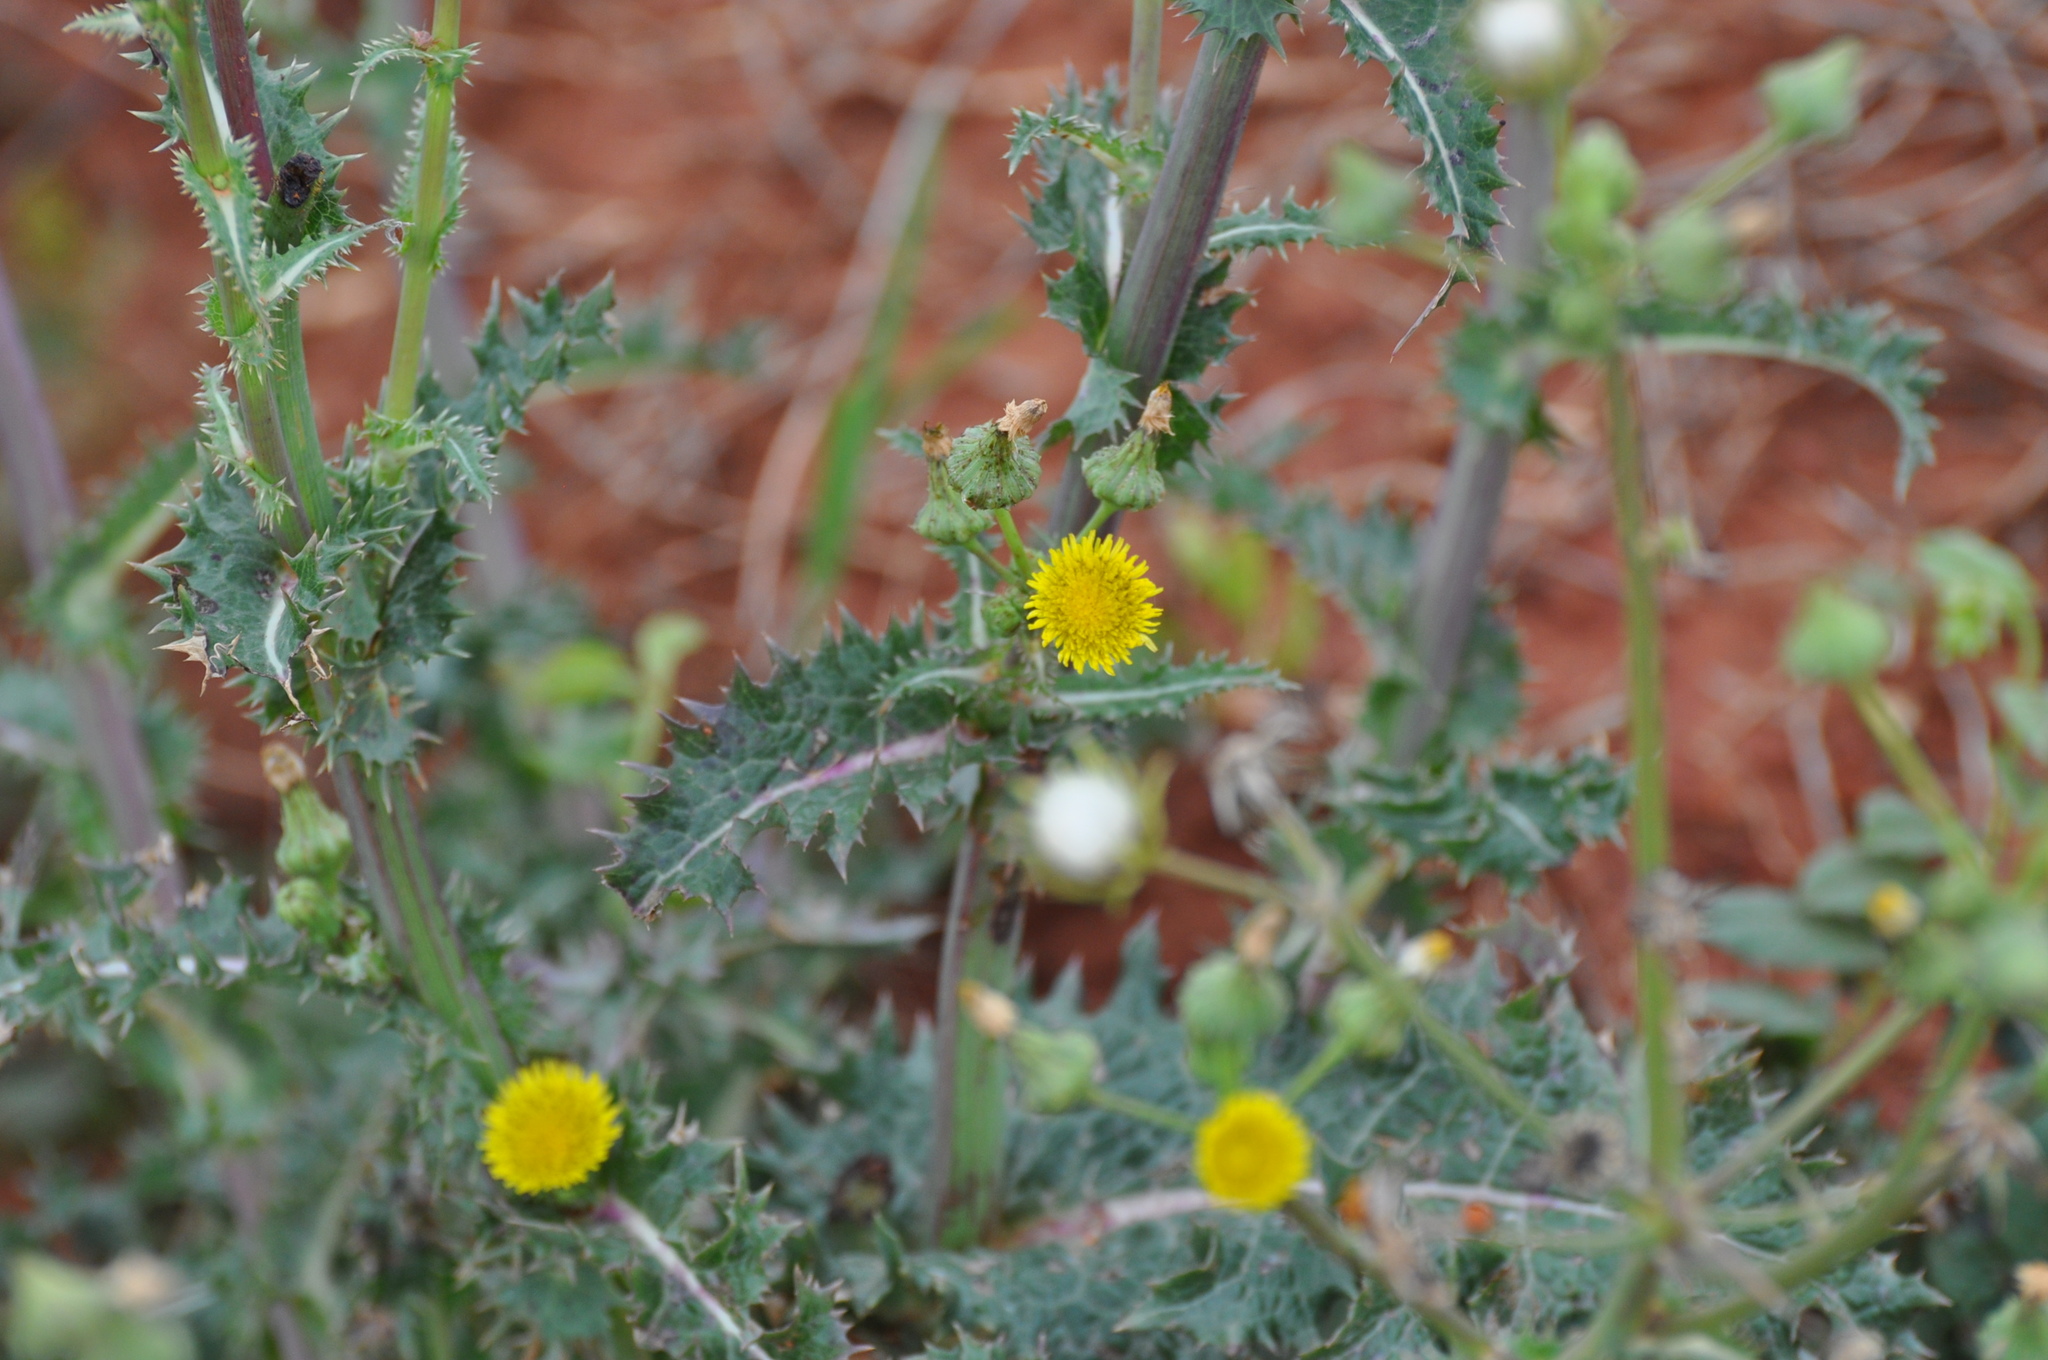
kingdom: Plantae
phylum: Tracheophyta
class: Magnoliopsida
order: Asterales
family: Asteraceae
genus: Sonchus
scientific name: Sonchus asper
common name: Prickly sow-thistle
